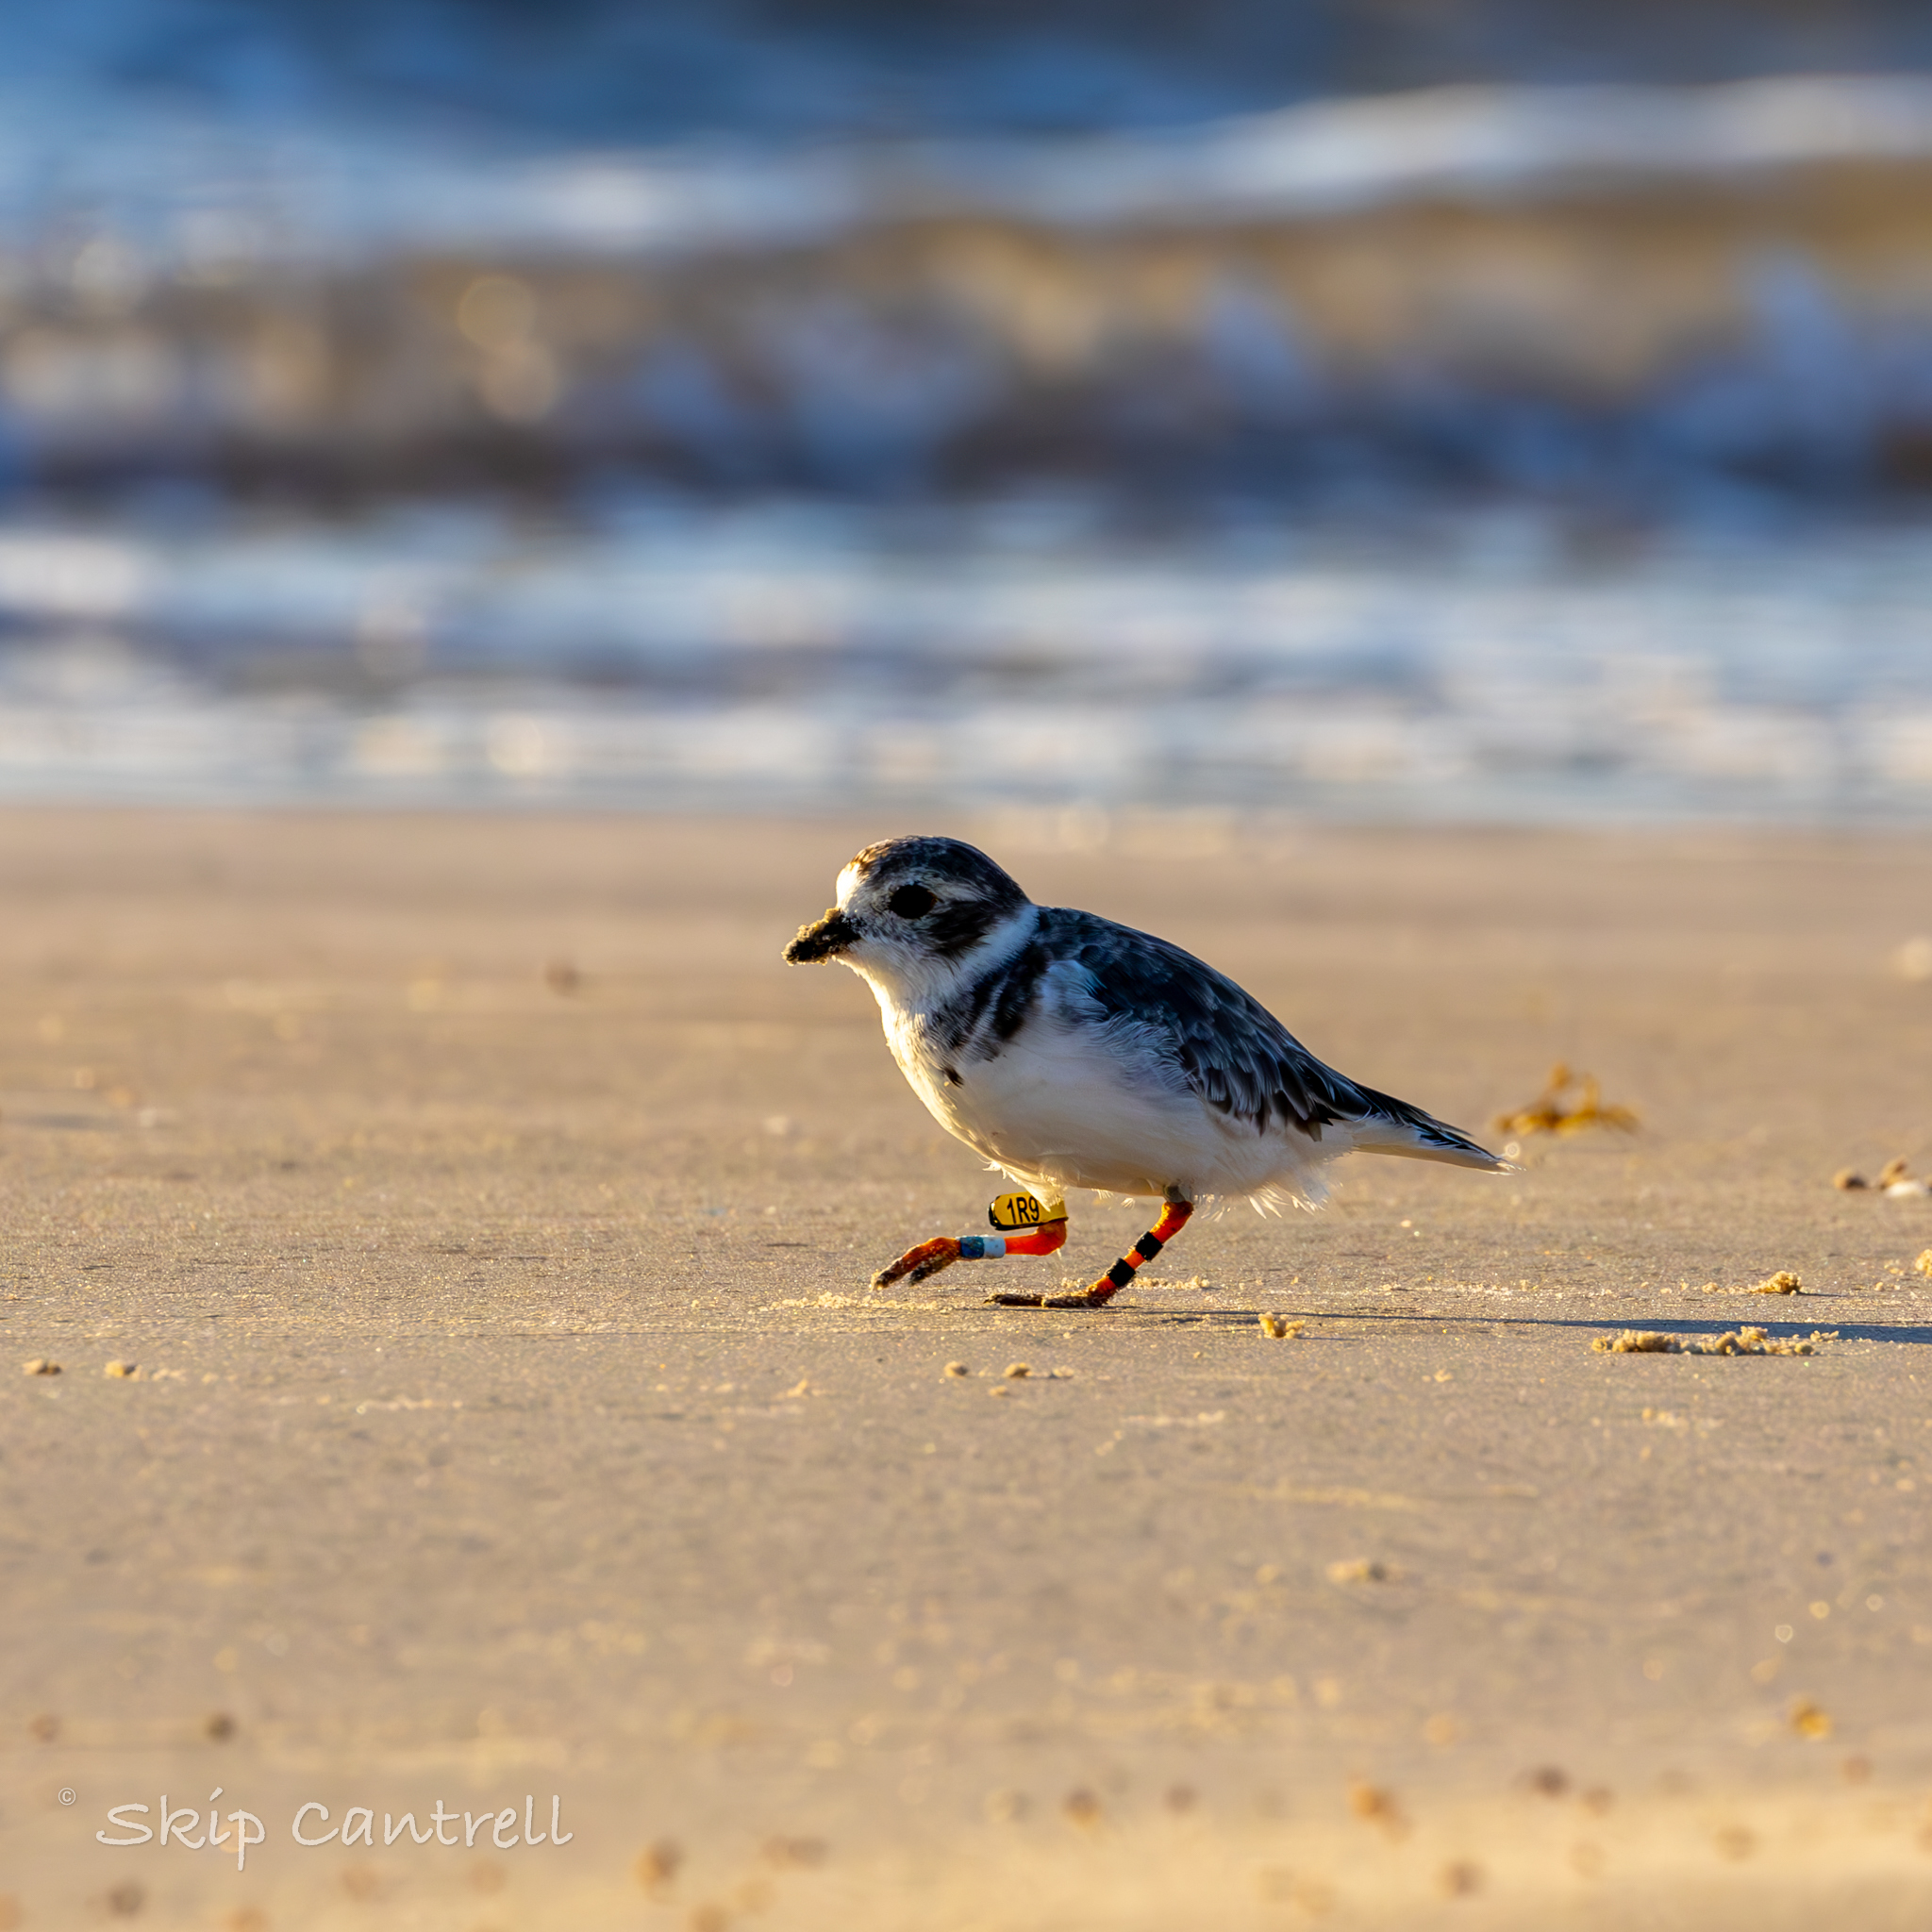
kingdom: Animalia
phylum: Chordata
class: Aves
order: Charadriiformes
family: Charadriidae
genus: Charadrius
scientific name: Charadrius melodus
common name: Piping plover
